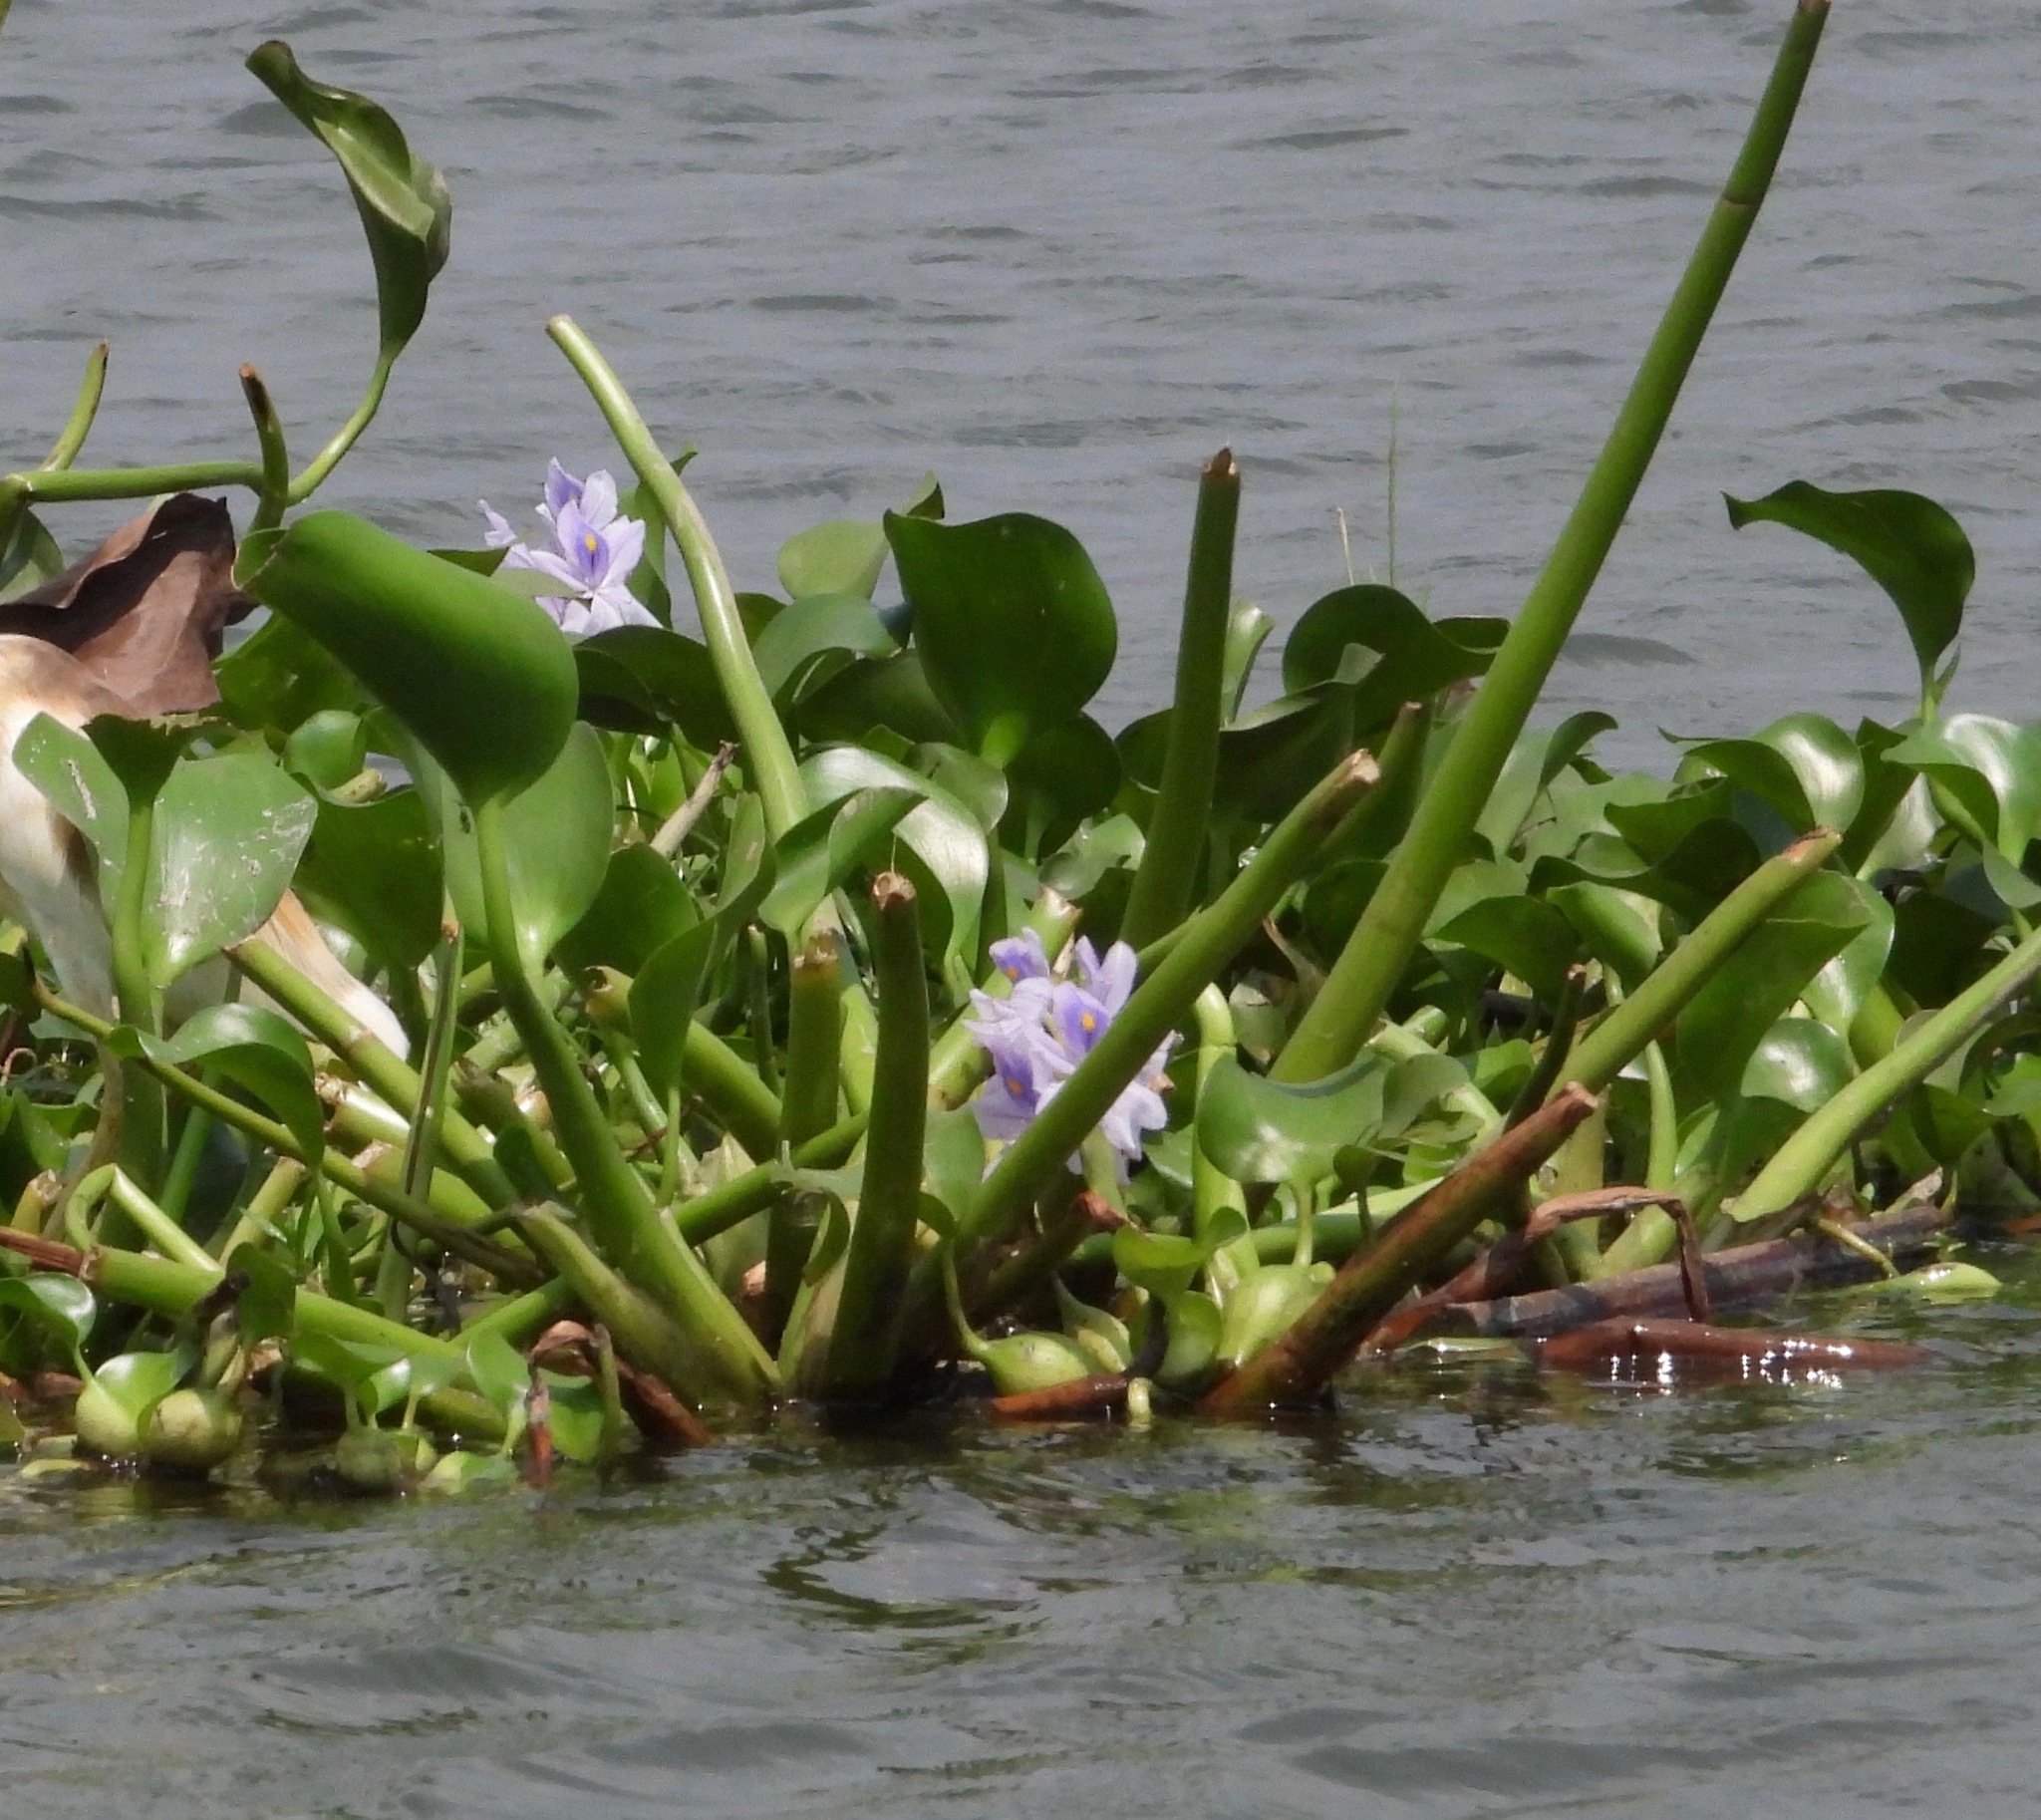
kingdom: Plantae
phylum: Tracheophyta
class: Liliopsida
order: Commelinales
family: Pontederiaceae
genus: Pontederia
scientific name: Pontederia crassipes
